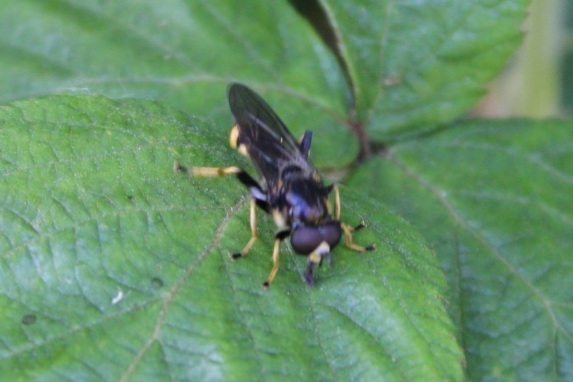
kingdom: Animalia
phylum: Arthropoda
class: Insecta
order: Diptera
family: Syrphidae
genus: Xylota
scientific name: Xylota sylvarum
